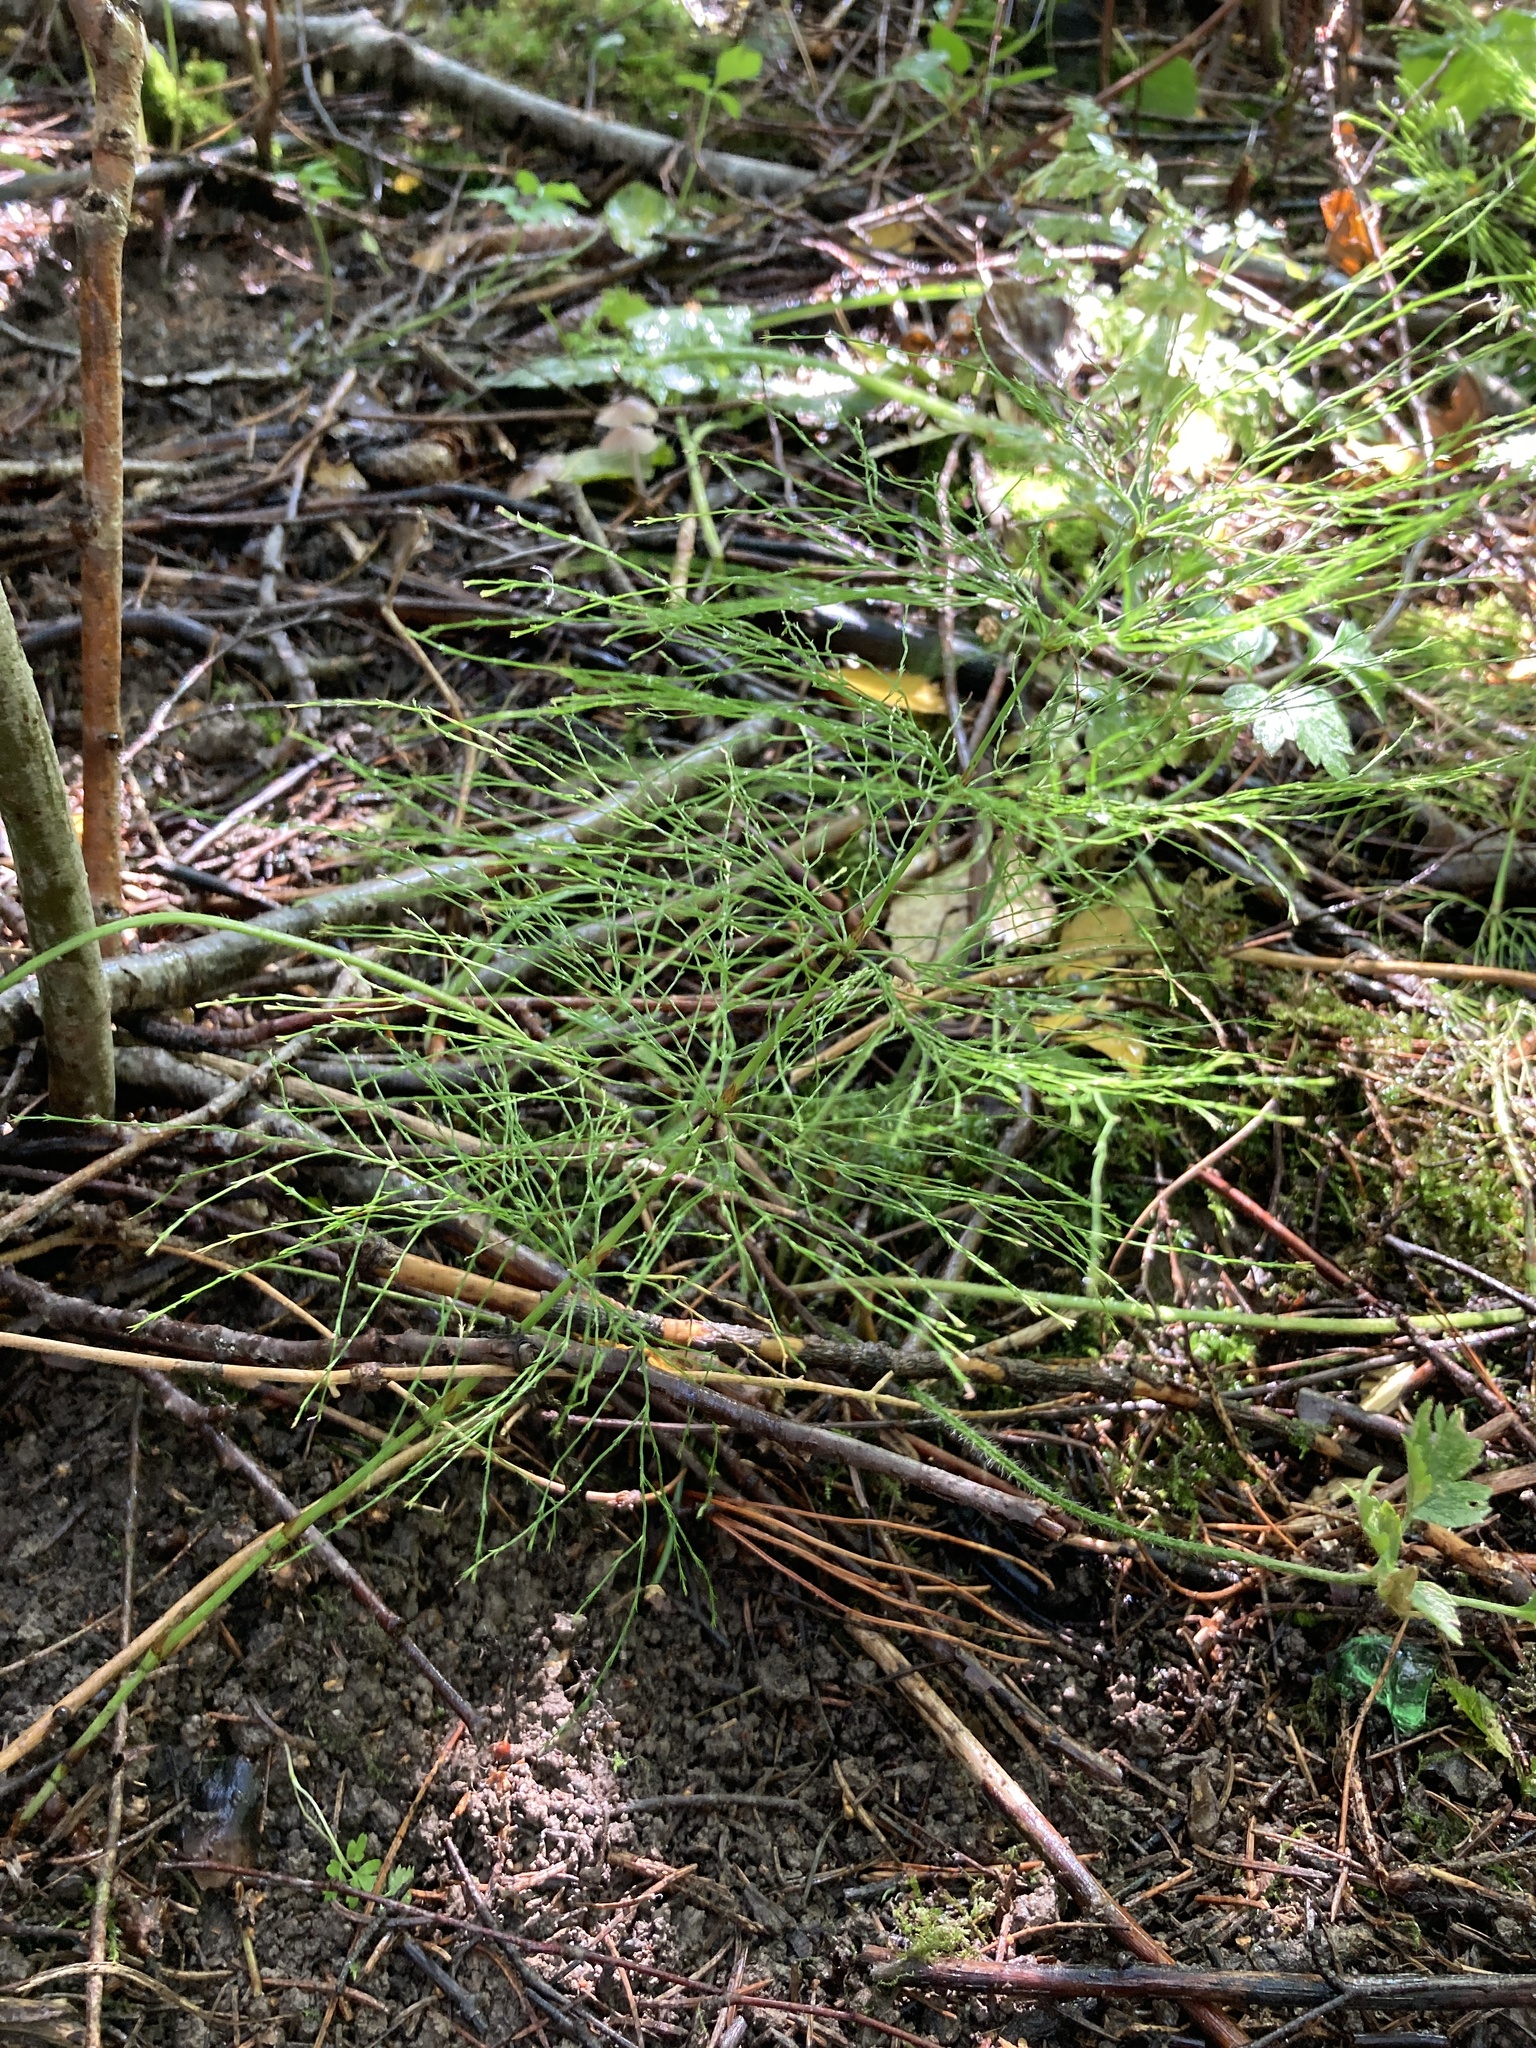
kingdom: Plantae
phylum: Tracheophyta
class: Polypodiopsida
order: Equisetales
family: Equisetaceae
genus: Equisetum
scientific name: Equisetum sylvaticum
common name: Wood horsetail
